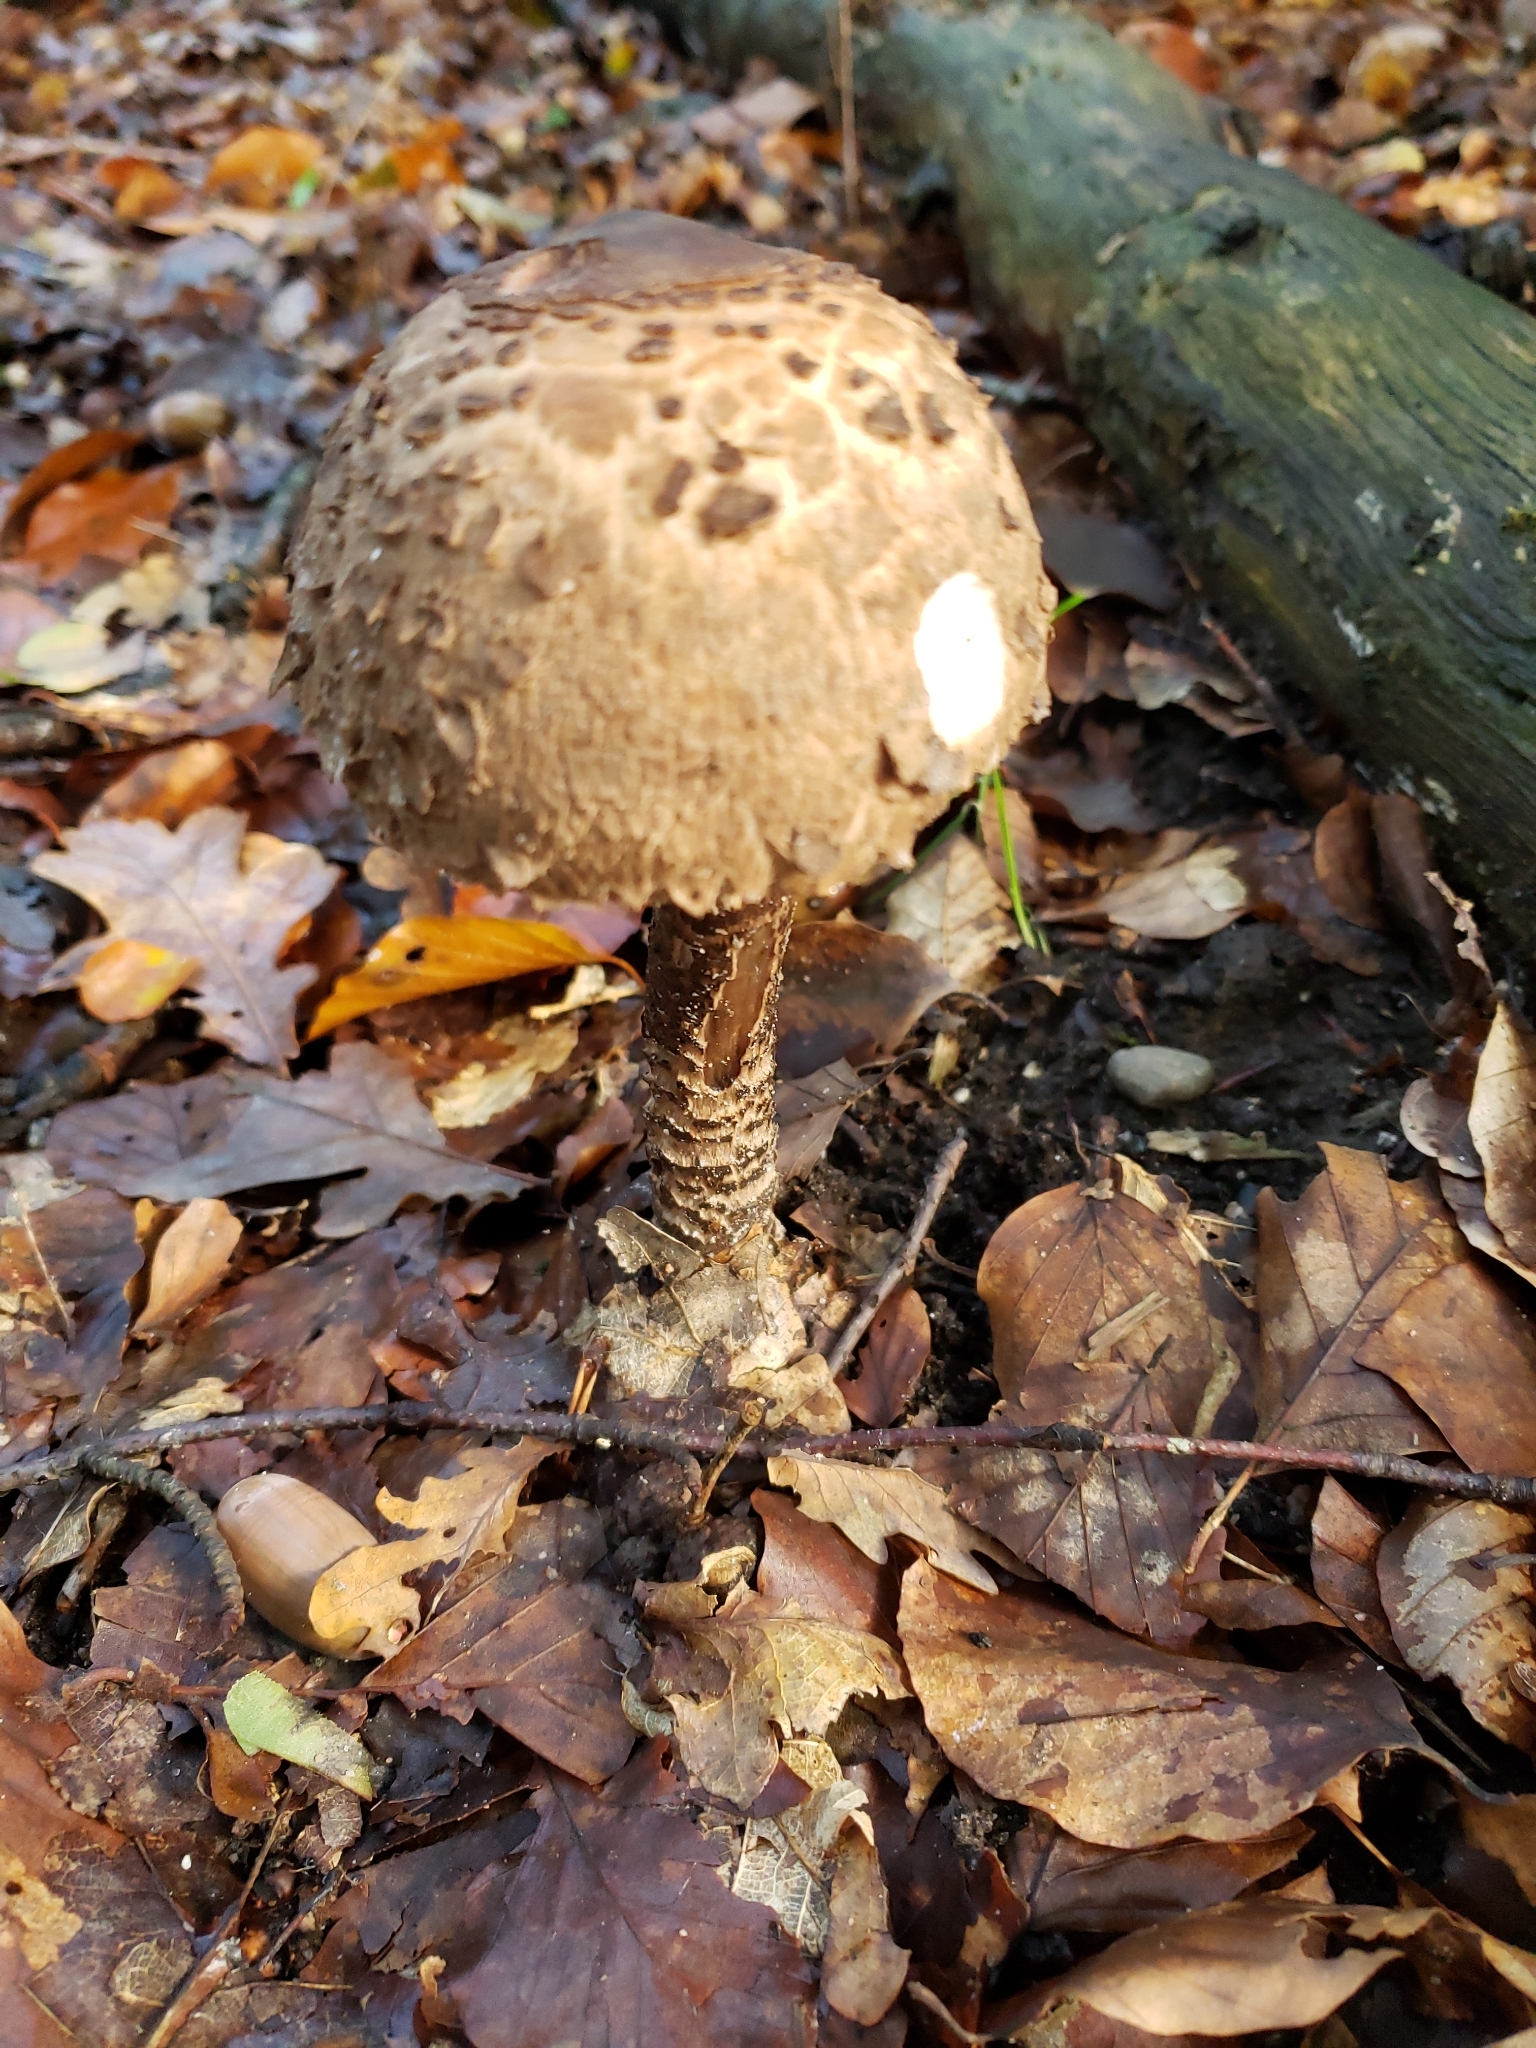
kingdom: Fungi
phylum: Basidiomycota
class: Agaricomycetes
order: Agaricales
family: Agaricaceae
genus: Macrolepiota
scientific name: Macrolepiota procera
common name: Parasol
